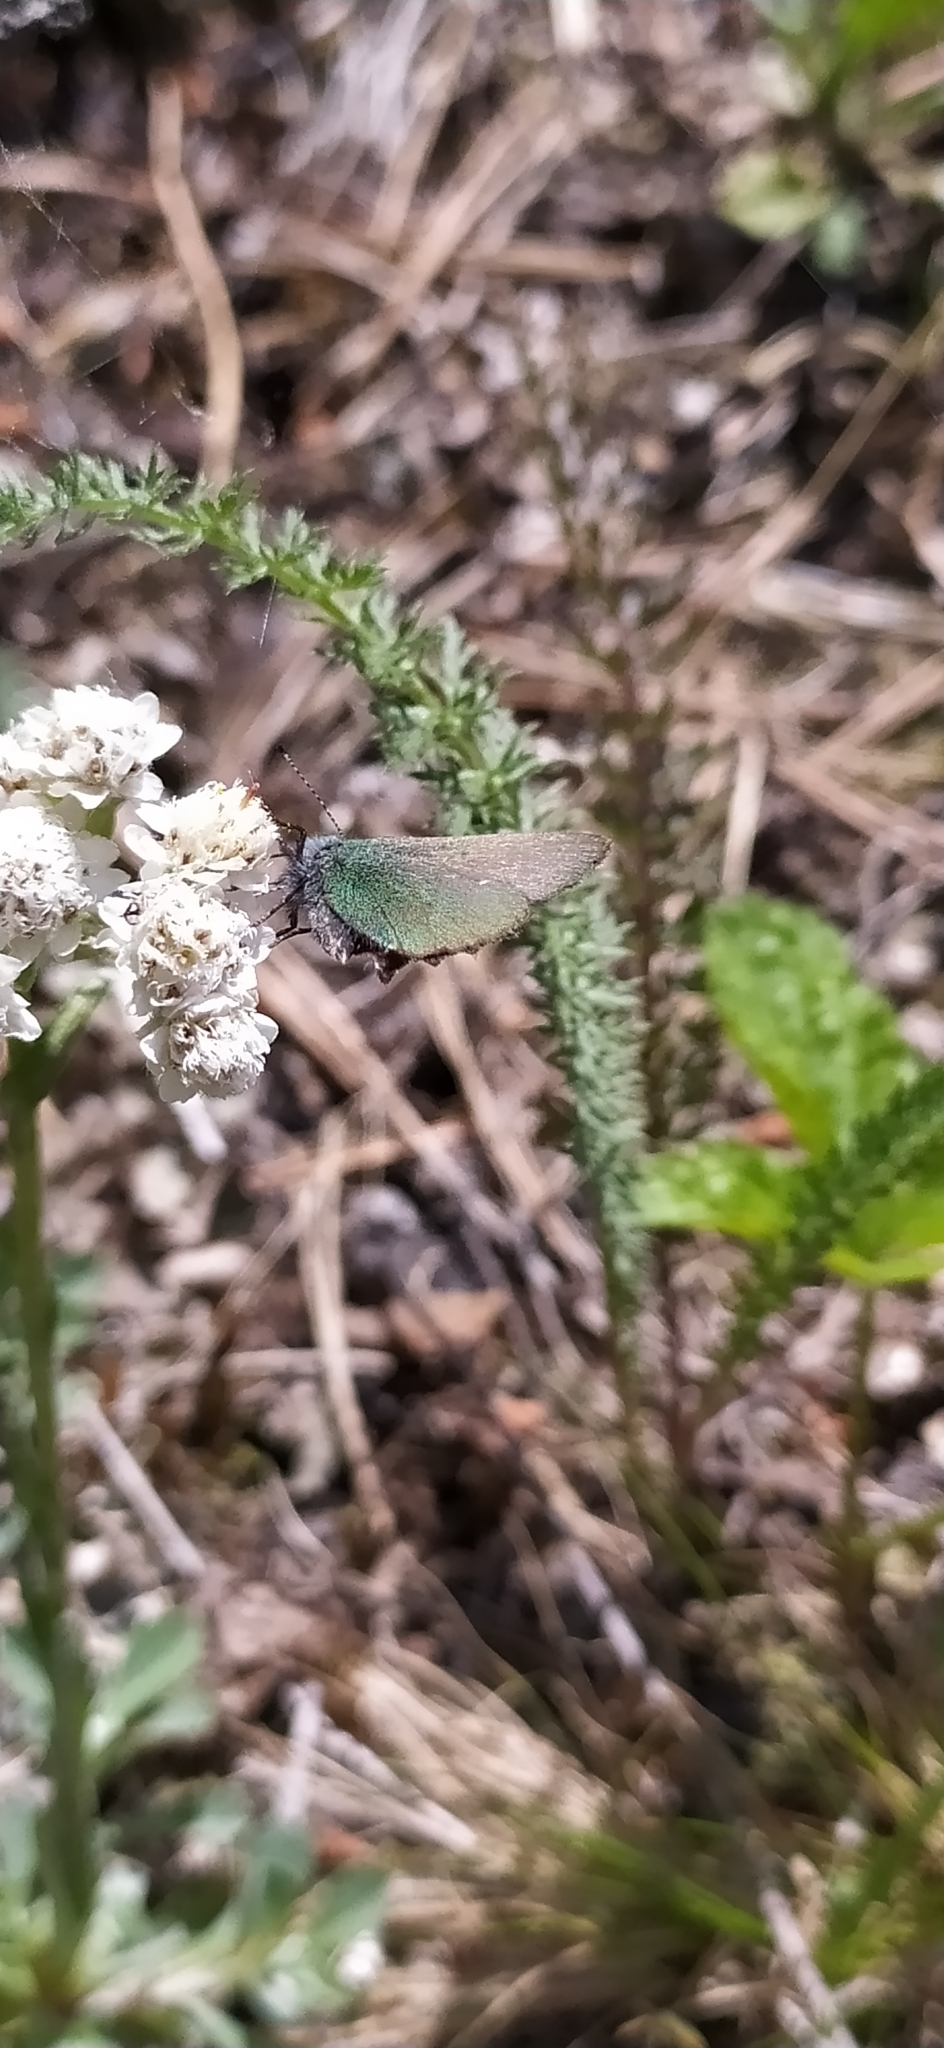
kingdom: Animalia
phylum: Arthropoda
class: Insecta
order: Lepidoptera
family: Lycaenidae
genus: Callophrys
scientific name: Callophrys rubi
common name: Green hairstreak
